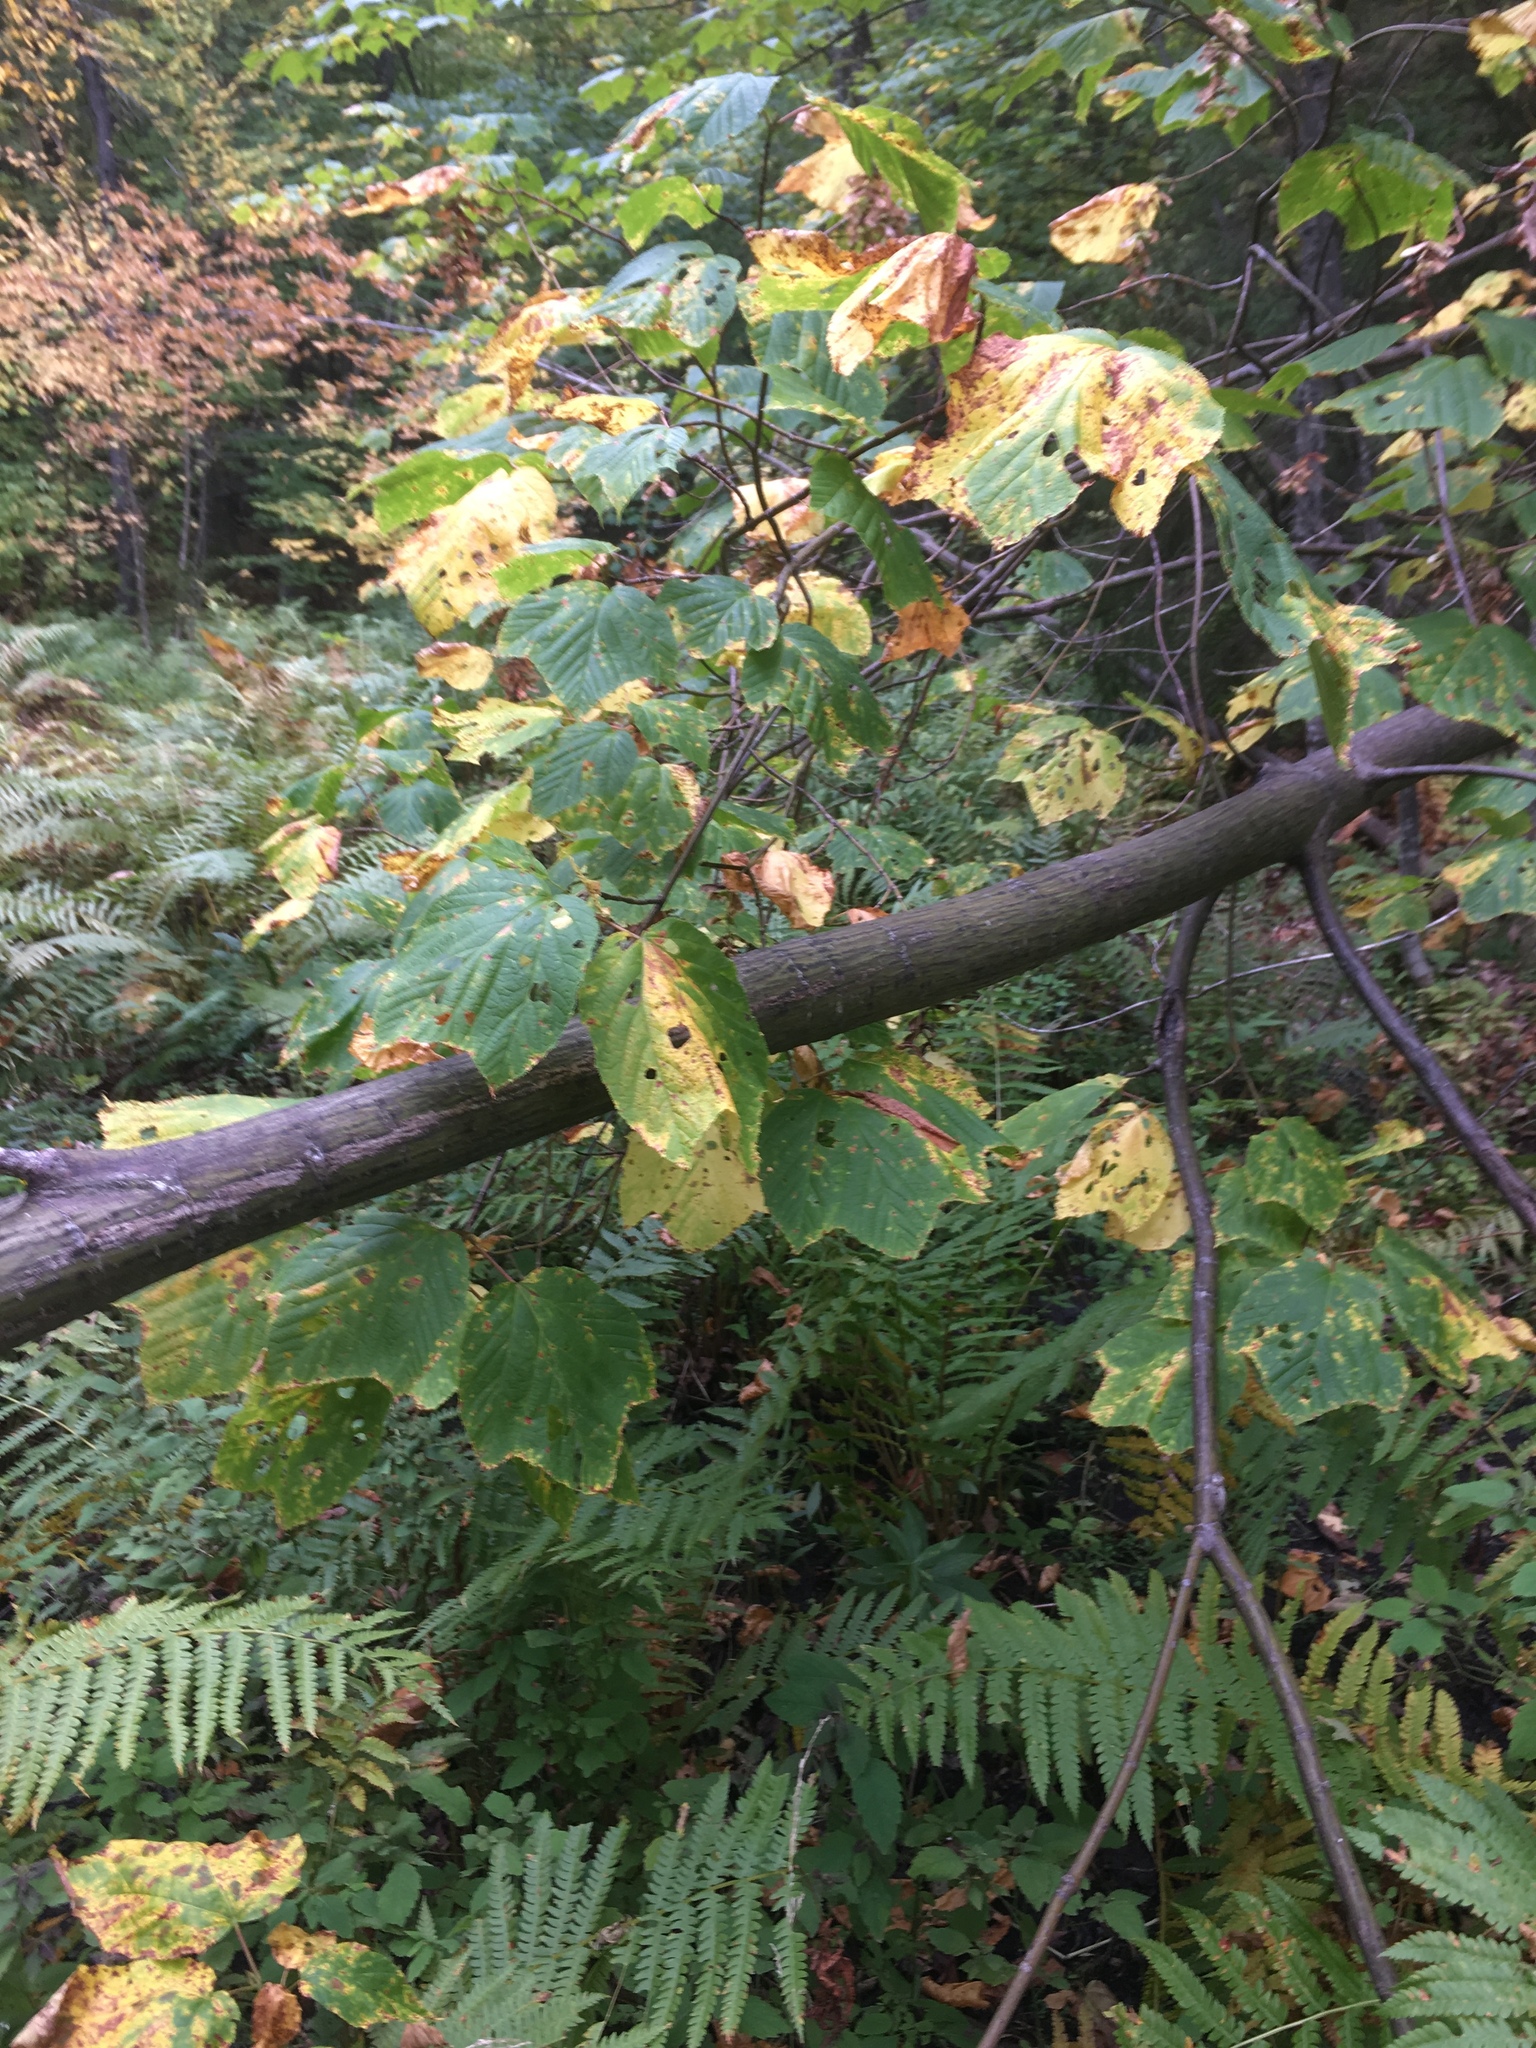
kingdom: Plantae
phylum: Tracheophyta
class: Magnoliopsida
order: Sapindales
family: Sapindaceae
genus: Acer
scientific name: Acer pensylvanicum
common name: Moosewood
